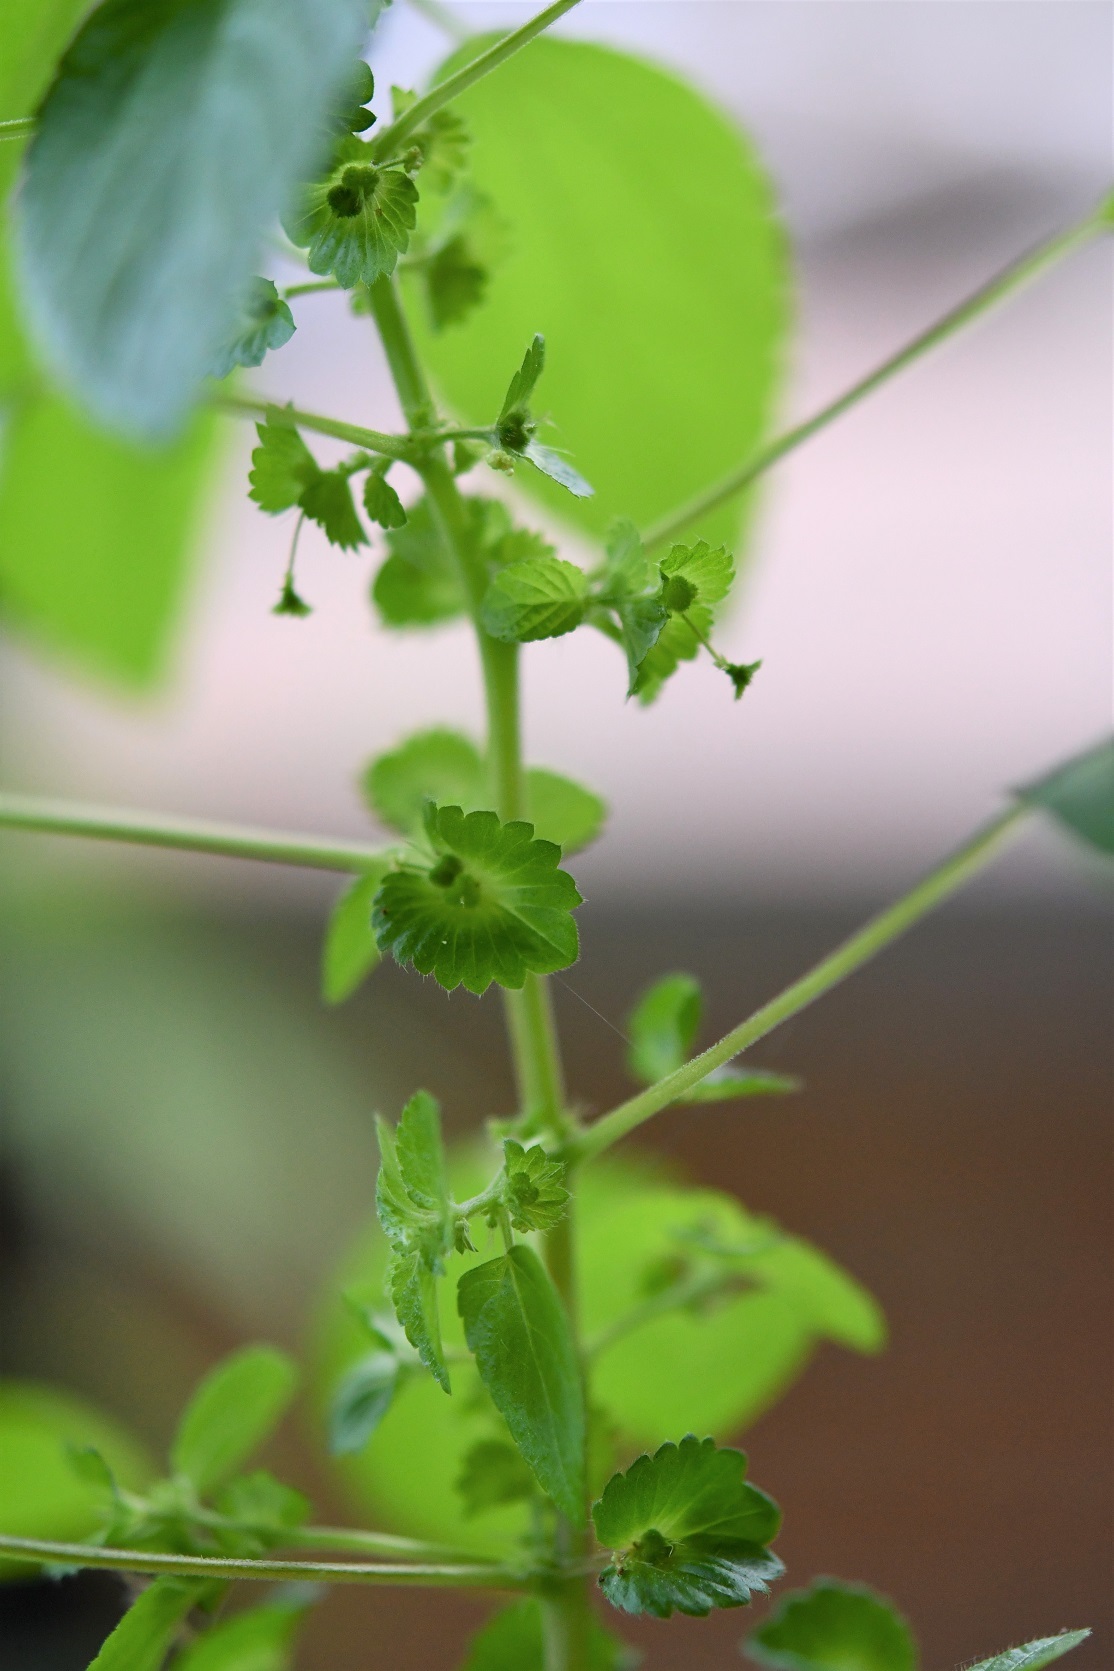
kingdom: Plantae
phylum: Tracheophyta
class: Magnoliopsida
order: Malpighiales
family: Euphorbiaceae
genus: Acalypha
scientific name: Acalypha mexicana
